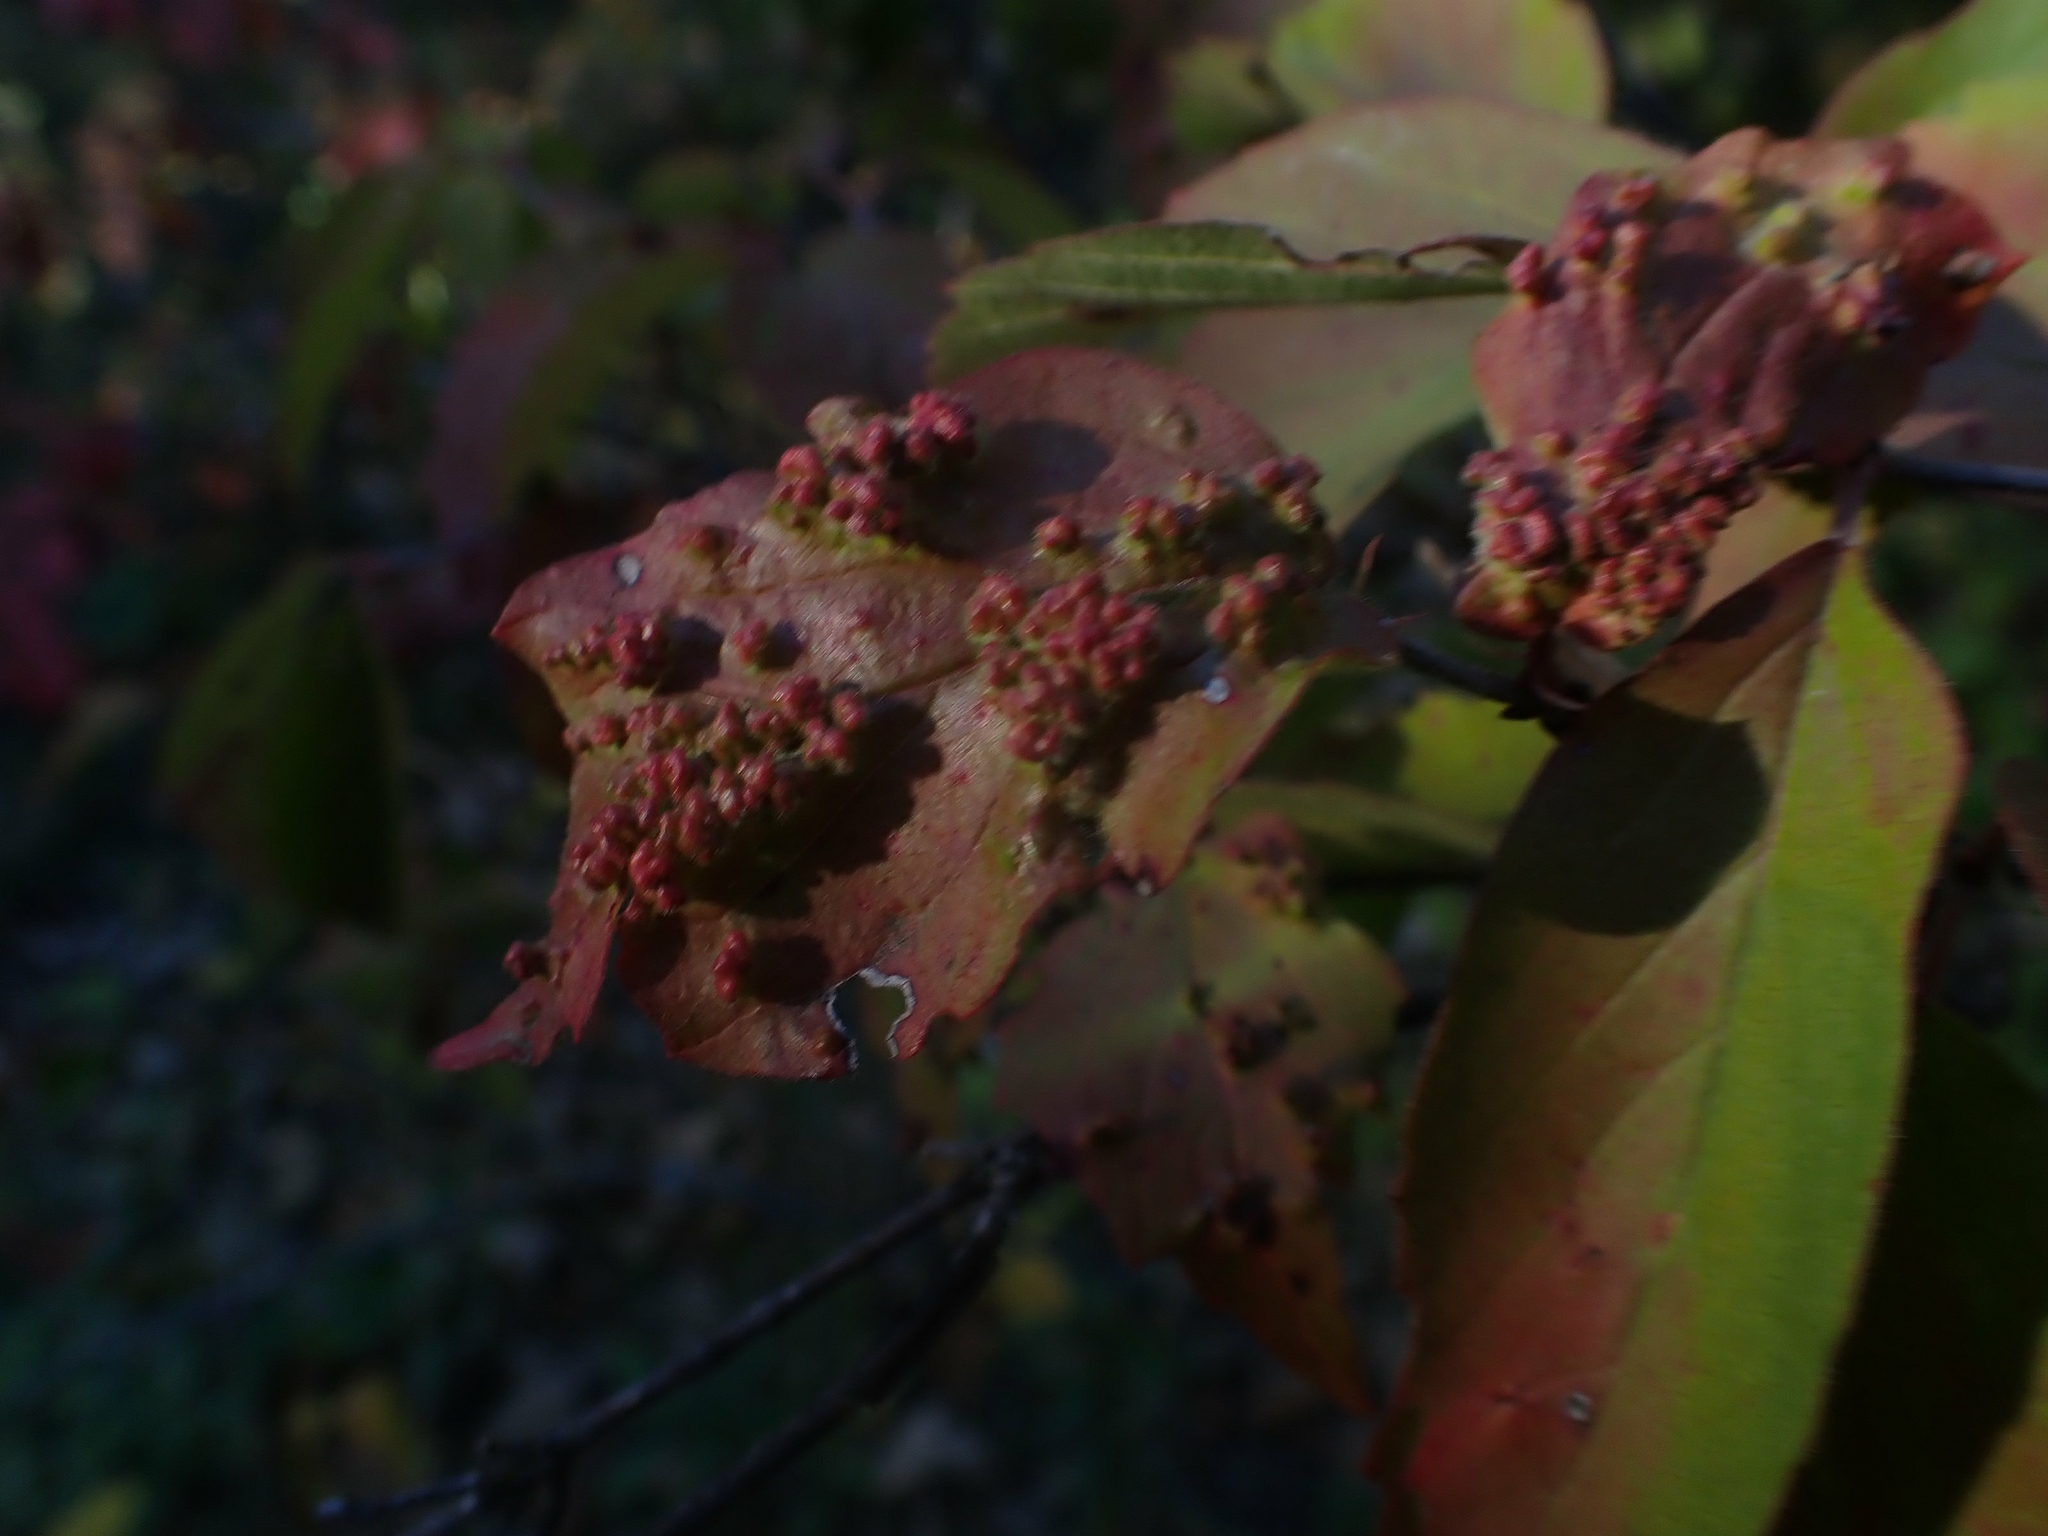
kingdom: Animalia
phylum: Arthropoda
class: Arachnida
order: Trombidiformes
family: Eriophyidae
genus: Eriophyes
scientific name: Eriophyes
